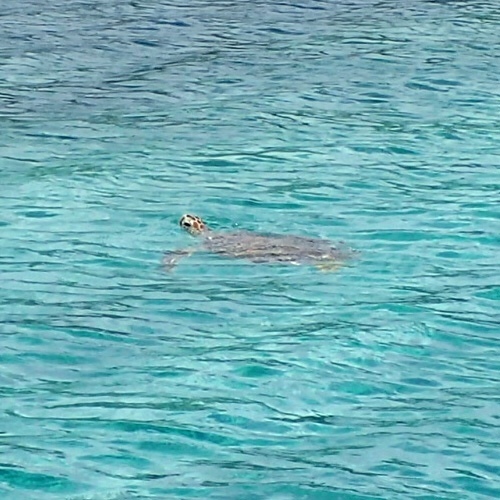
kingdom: Animalia
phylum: Chordata
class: Testudines
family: Cheloniidae
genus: Chelonia
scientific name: Chelonia mydas
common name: Green turtle
